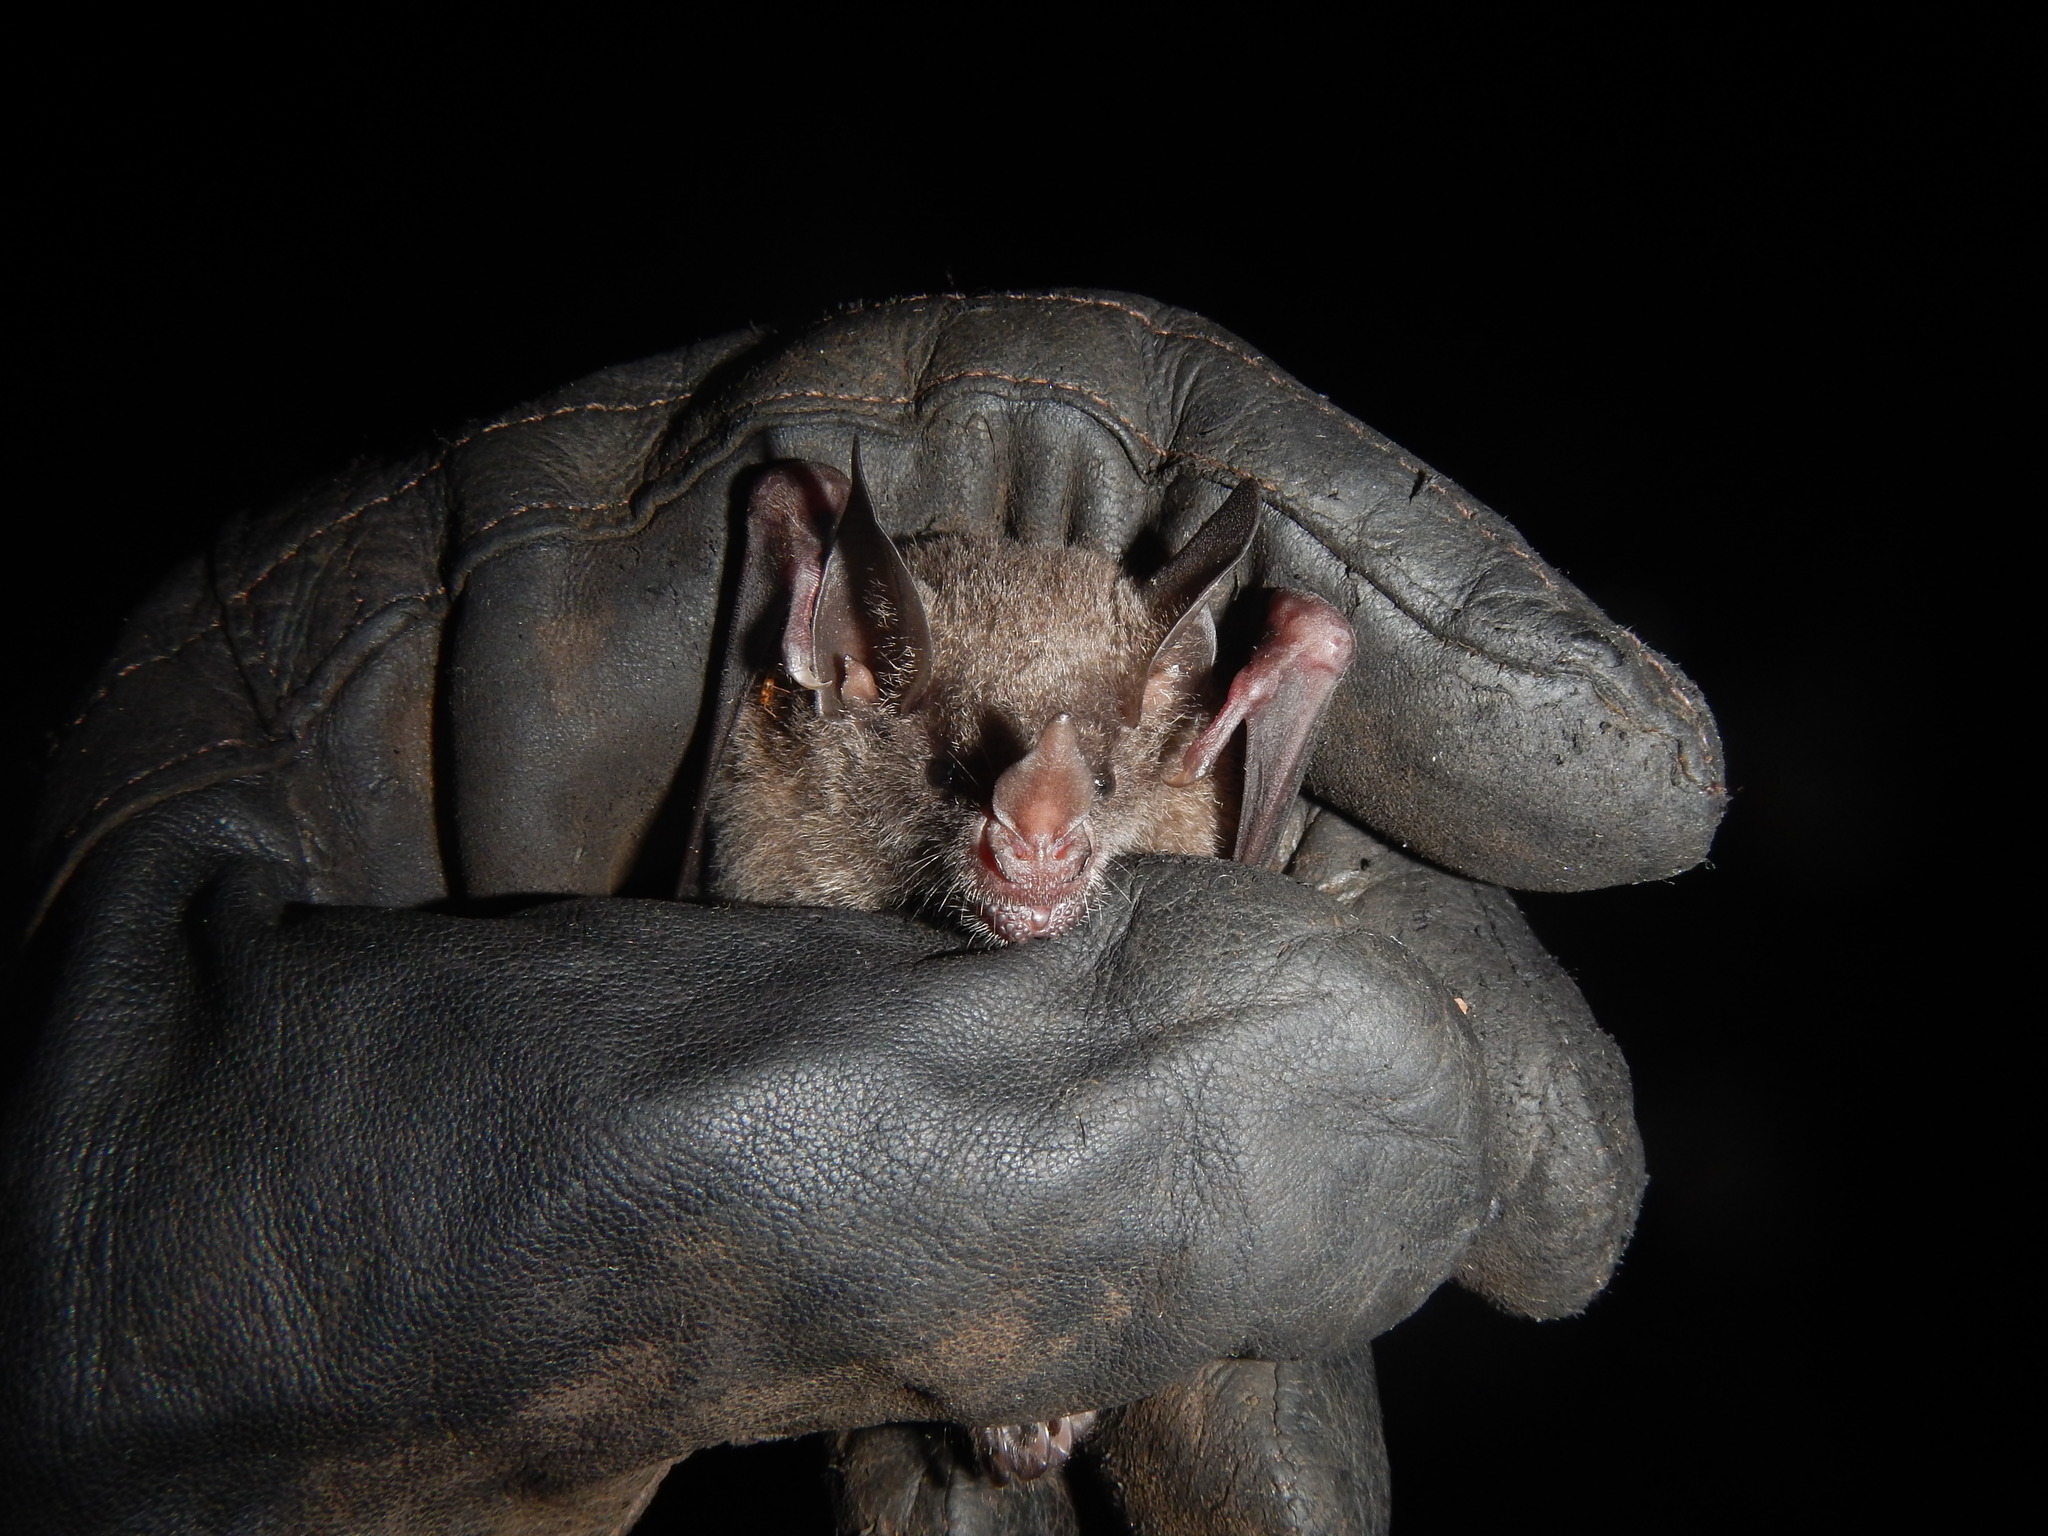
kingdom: Animalia
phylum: Chordata
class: Mammalia
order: Chiroptera
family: Phyllostomidae
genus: Carollia
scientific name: Carollia perspicillata
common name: Seba's short-tailed bat
